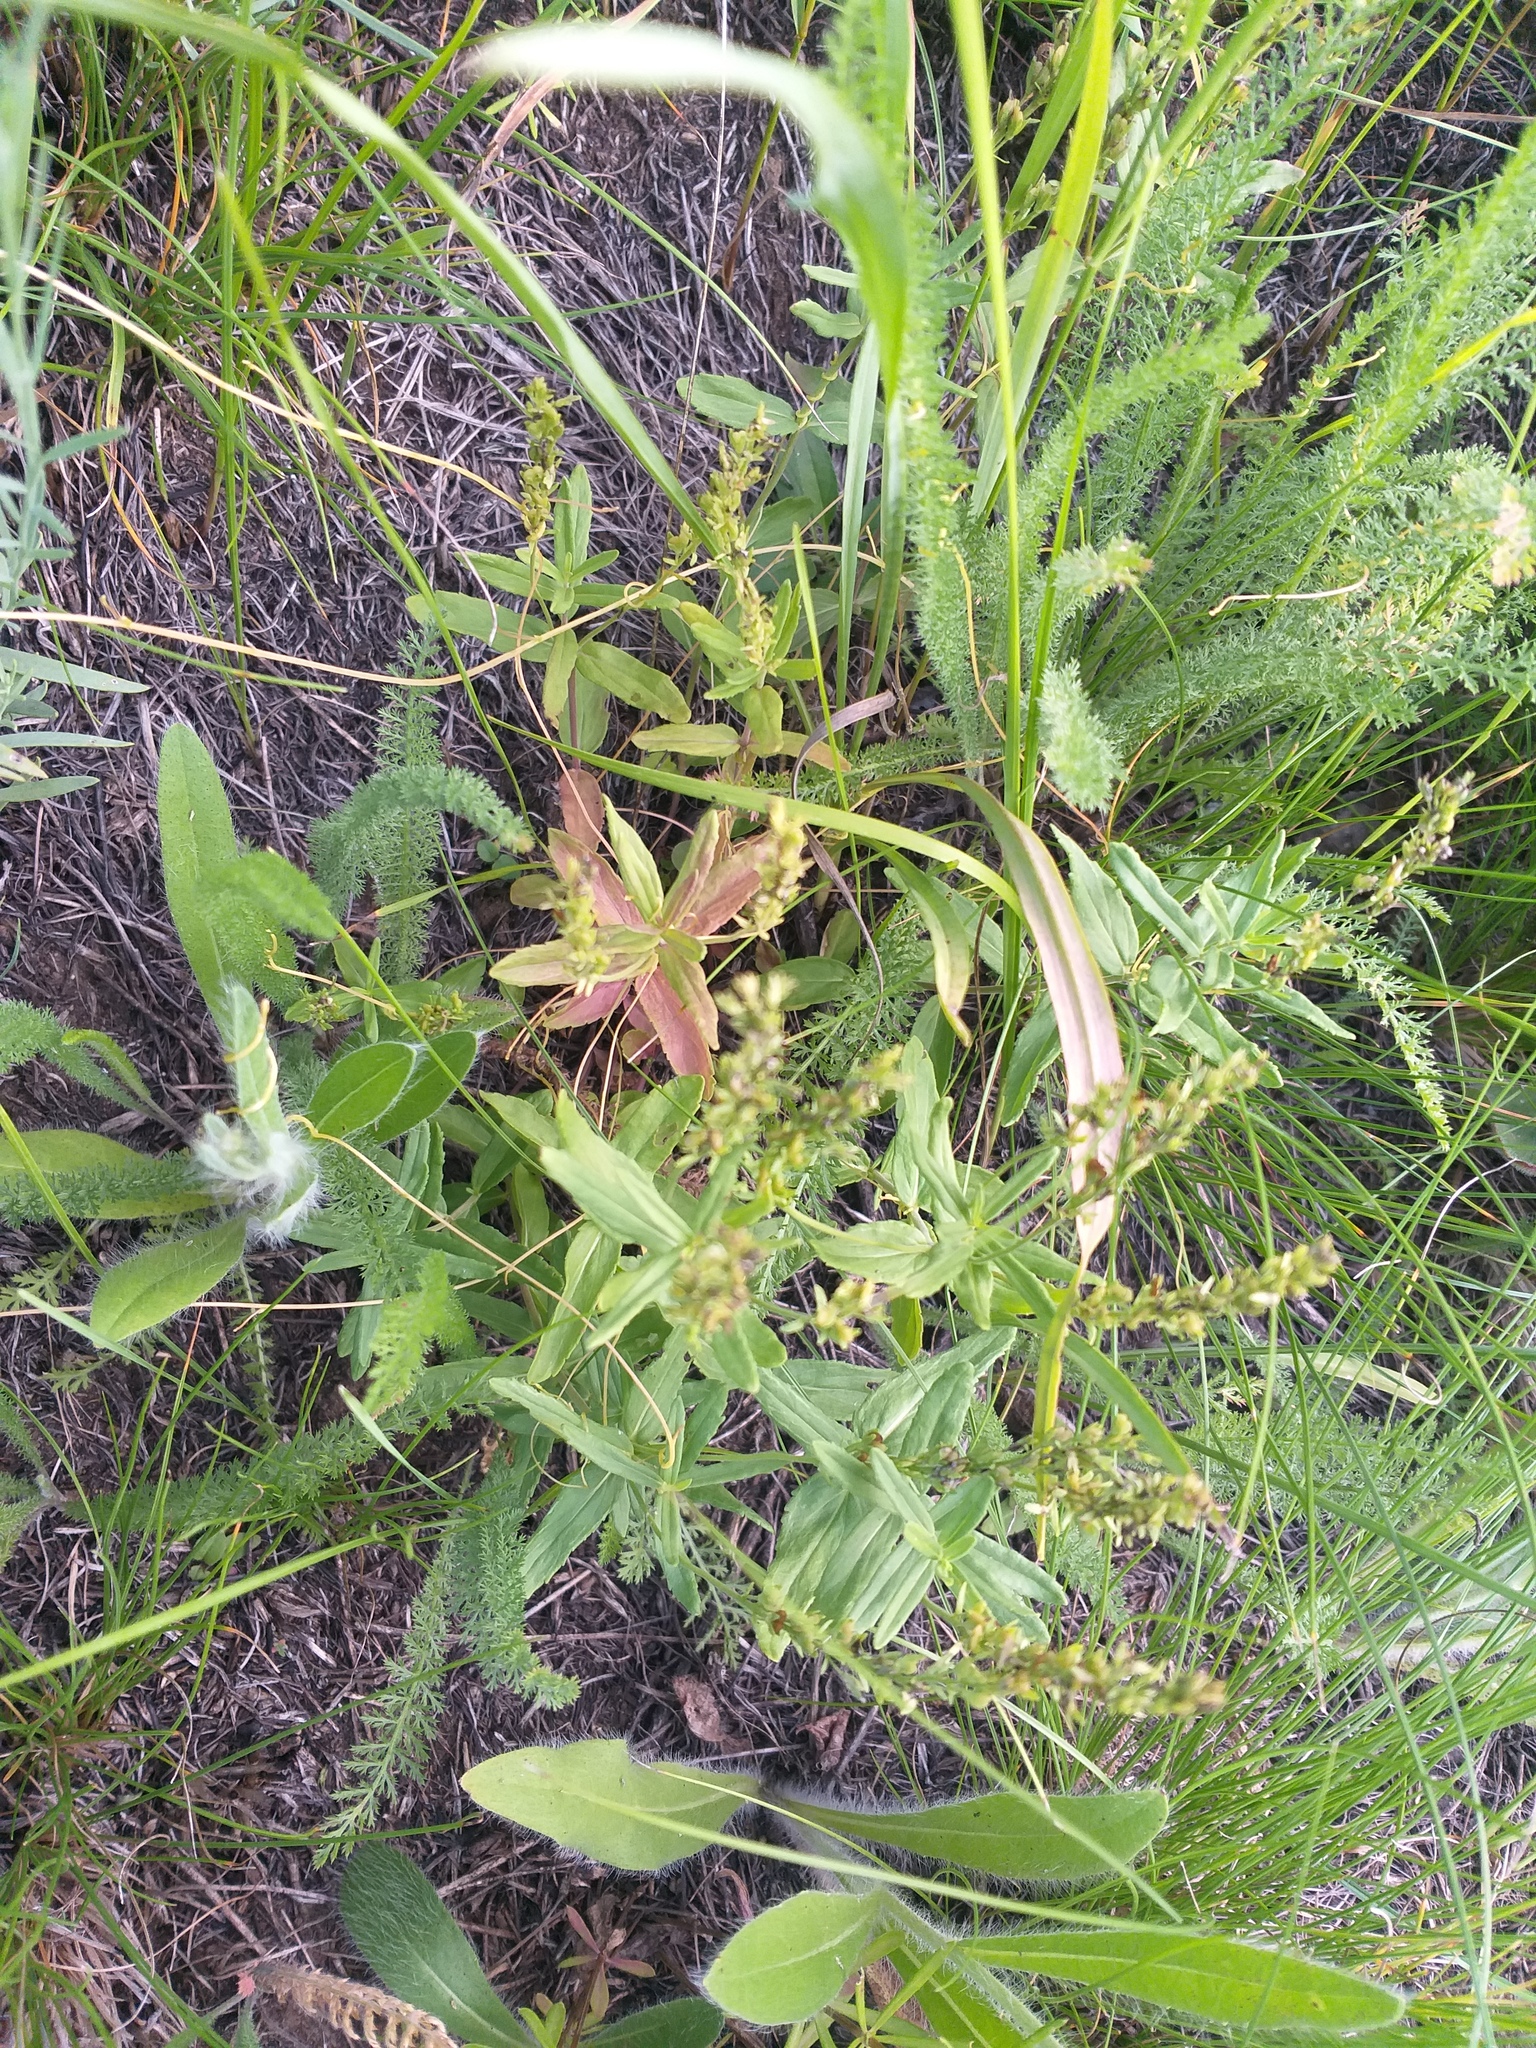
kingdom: Plantae
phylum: Tracheophyta
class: Magnoliopsida
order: Lamiales
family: Plantaginaceae
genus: Veronica
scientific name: Veronica prostrata
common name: Prostrate speedwell
